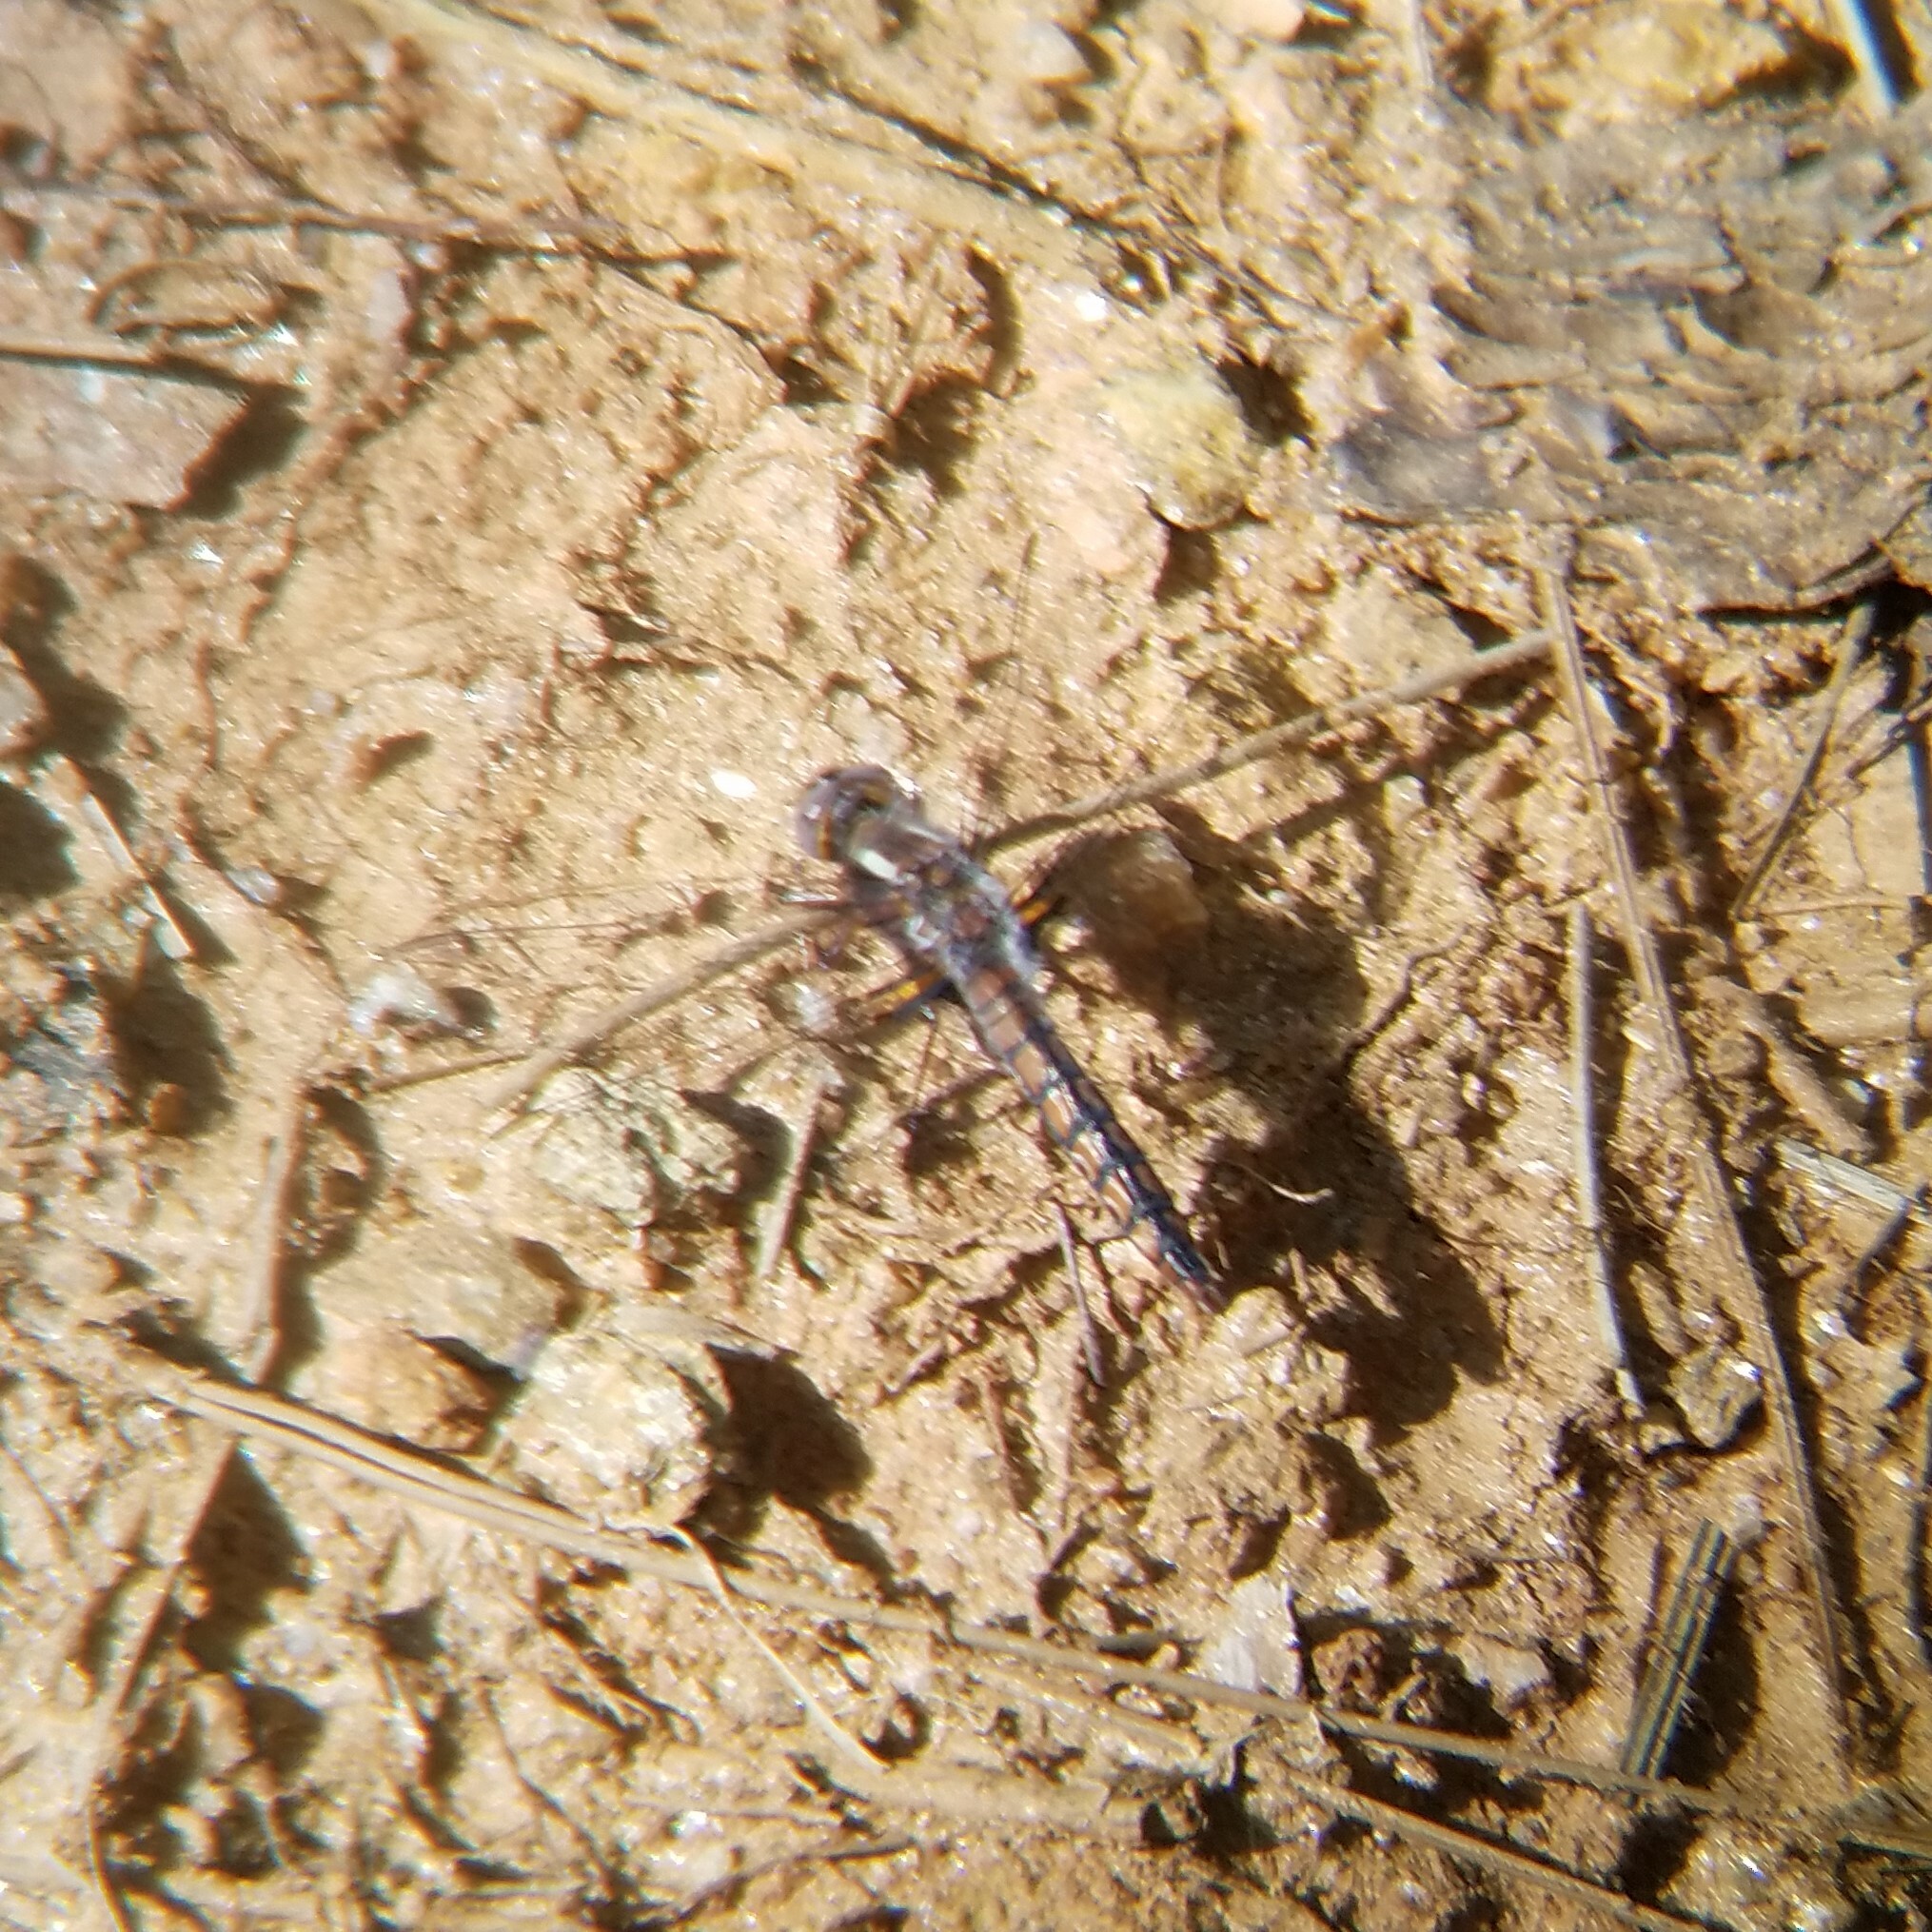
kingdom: Animalia
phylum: Arthropoda
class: Insecta
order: Odonata
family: Libellulidae
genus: Ladona
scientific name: Ladona deplanata
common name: Blue corporal
